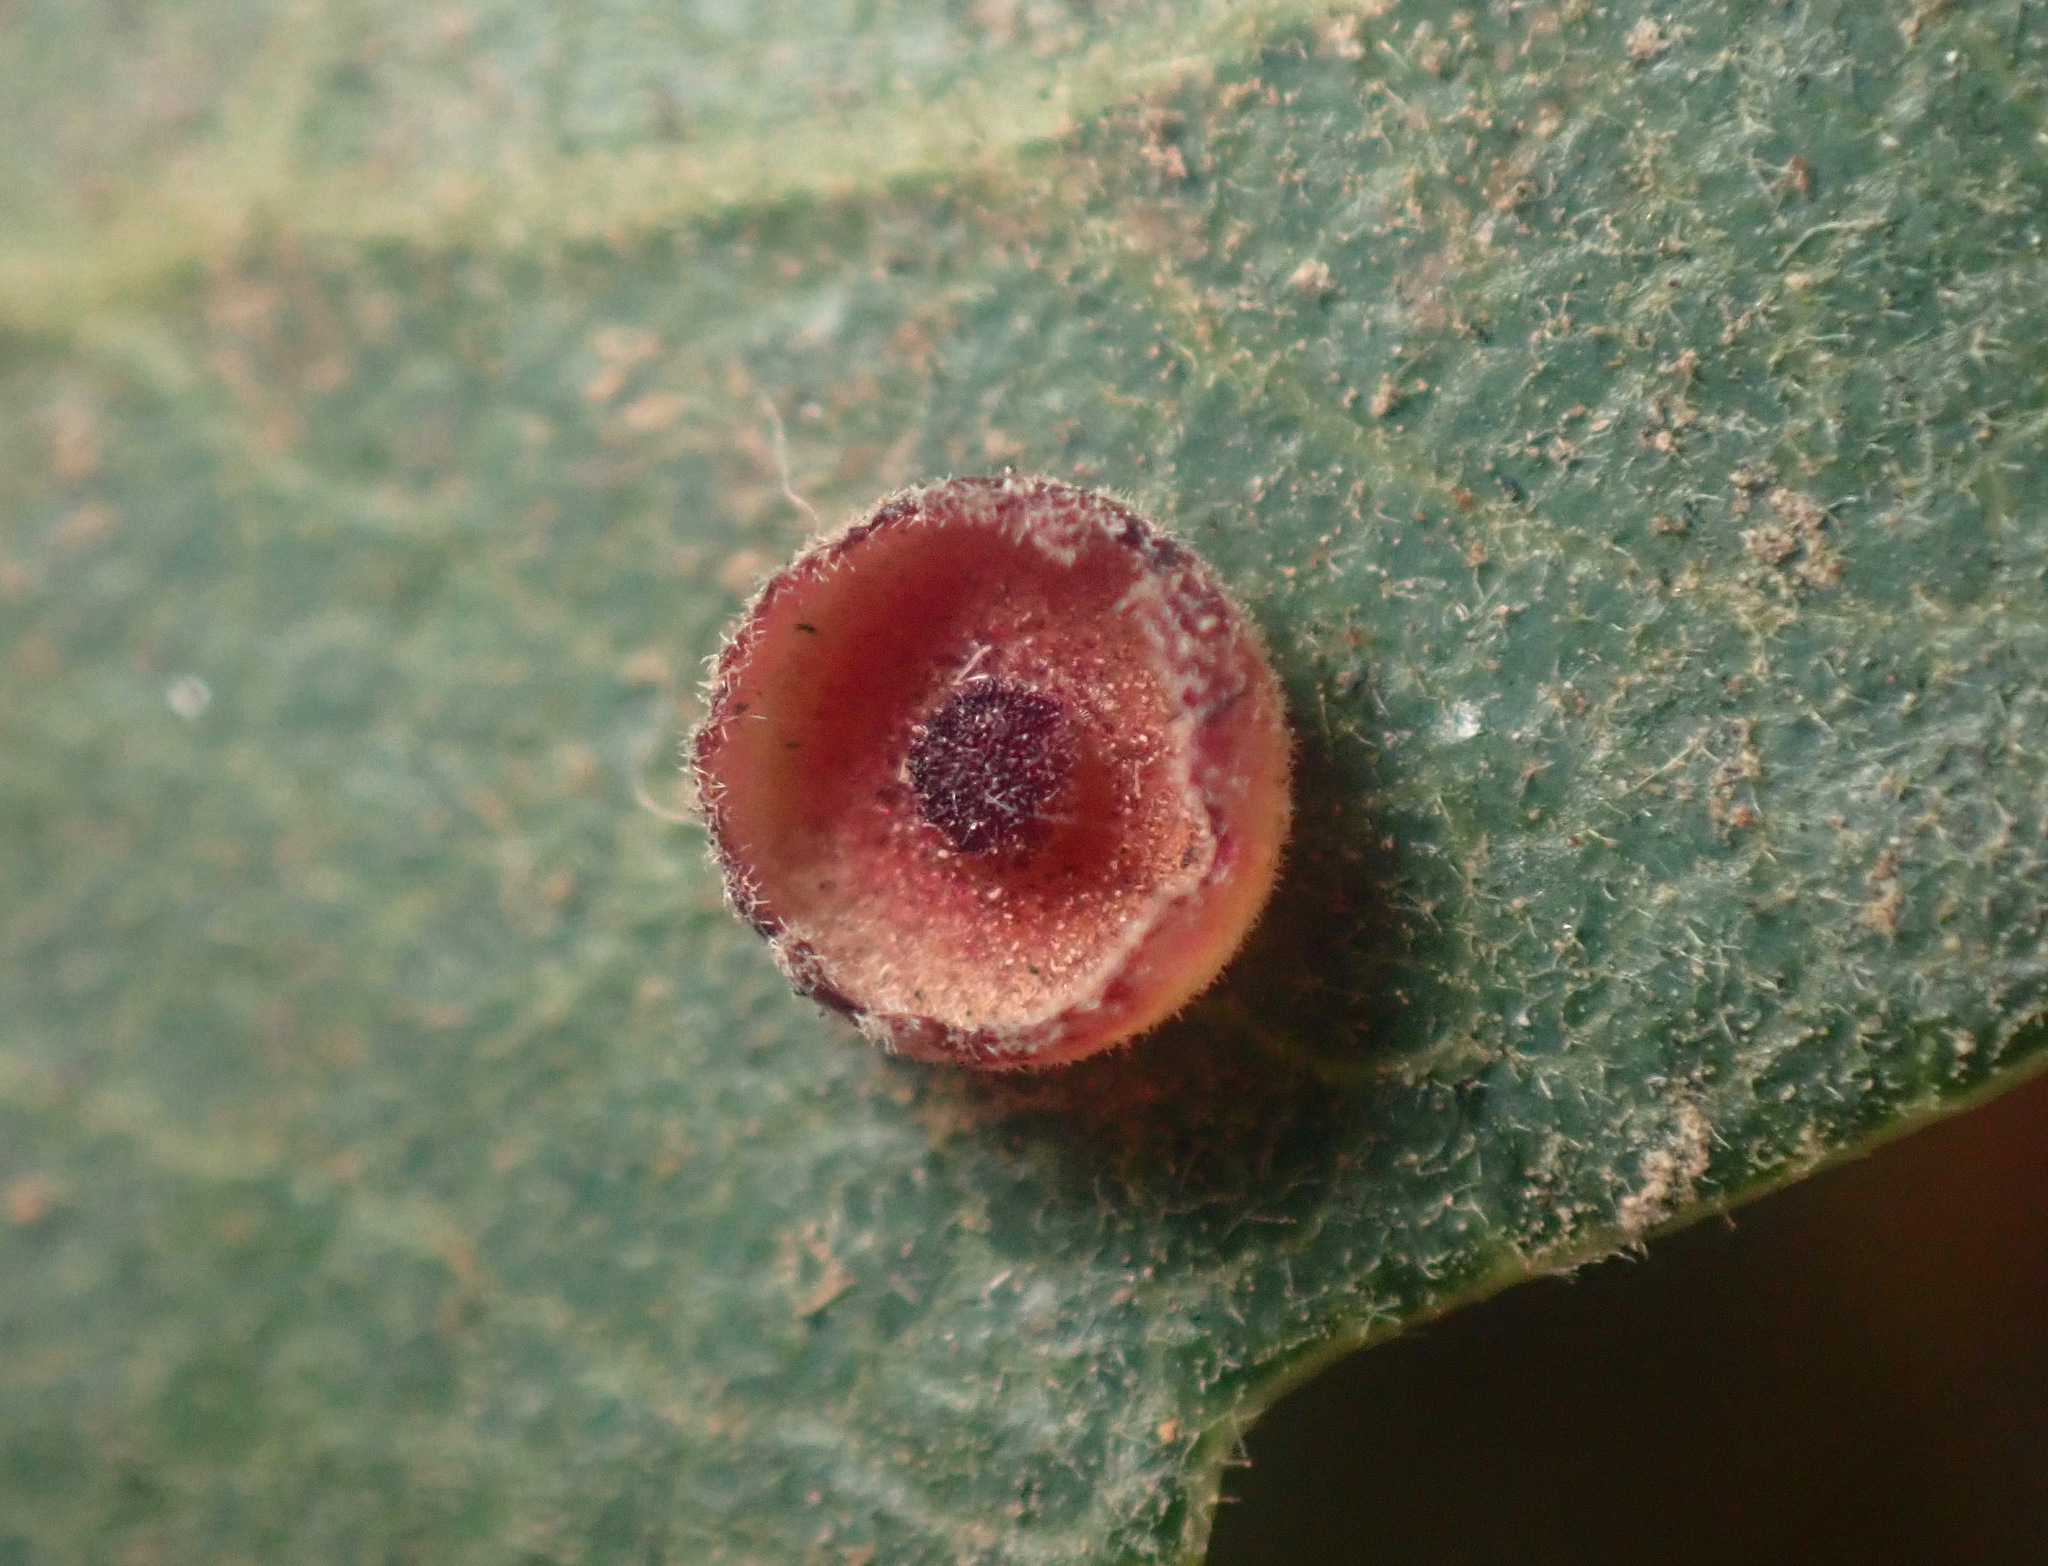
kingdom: Animalia
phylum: Arthropoda
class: Insecta
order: Hymenoptera
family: Cynipidae
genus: Andricus
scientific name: Andricus
